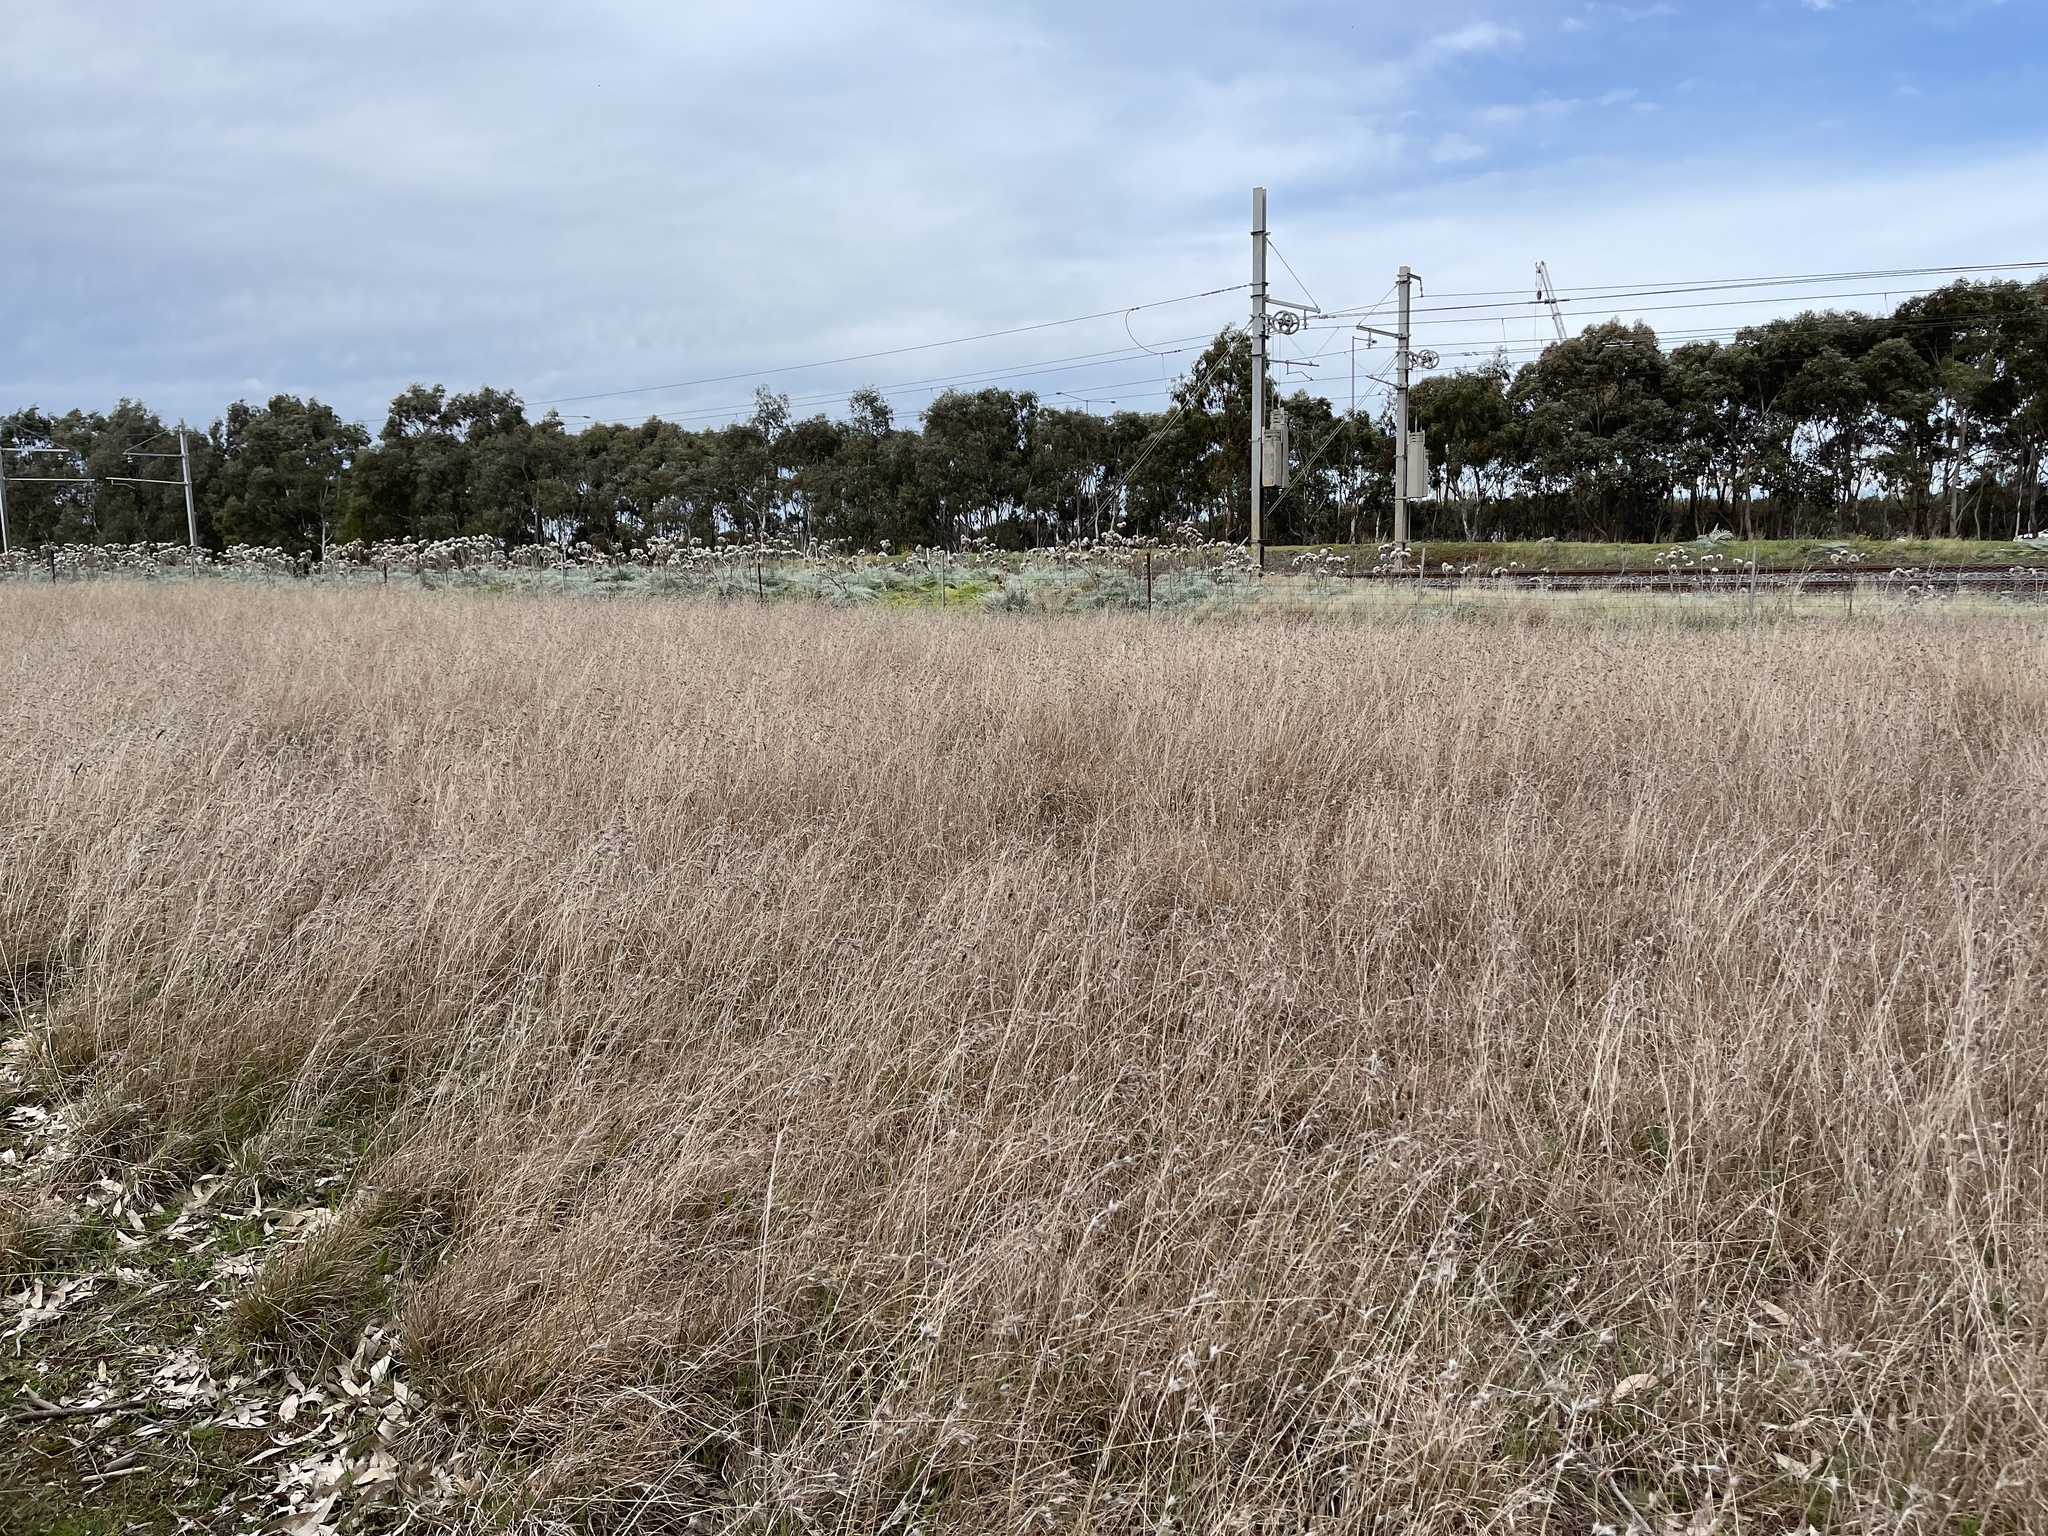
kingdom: Plantae
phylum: Tracheophyta
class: Liliopsida
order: Poales
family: Poaceae
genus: Themeda
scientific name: Themeda triandra
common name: Kangaroo grass
